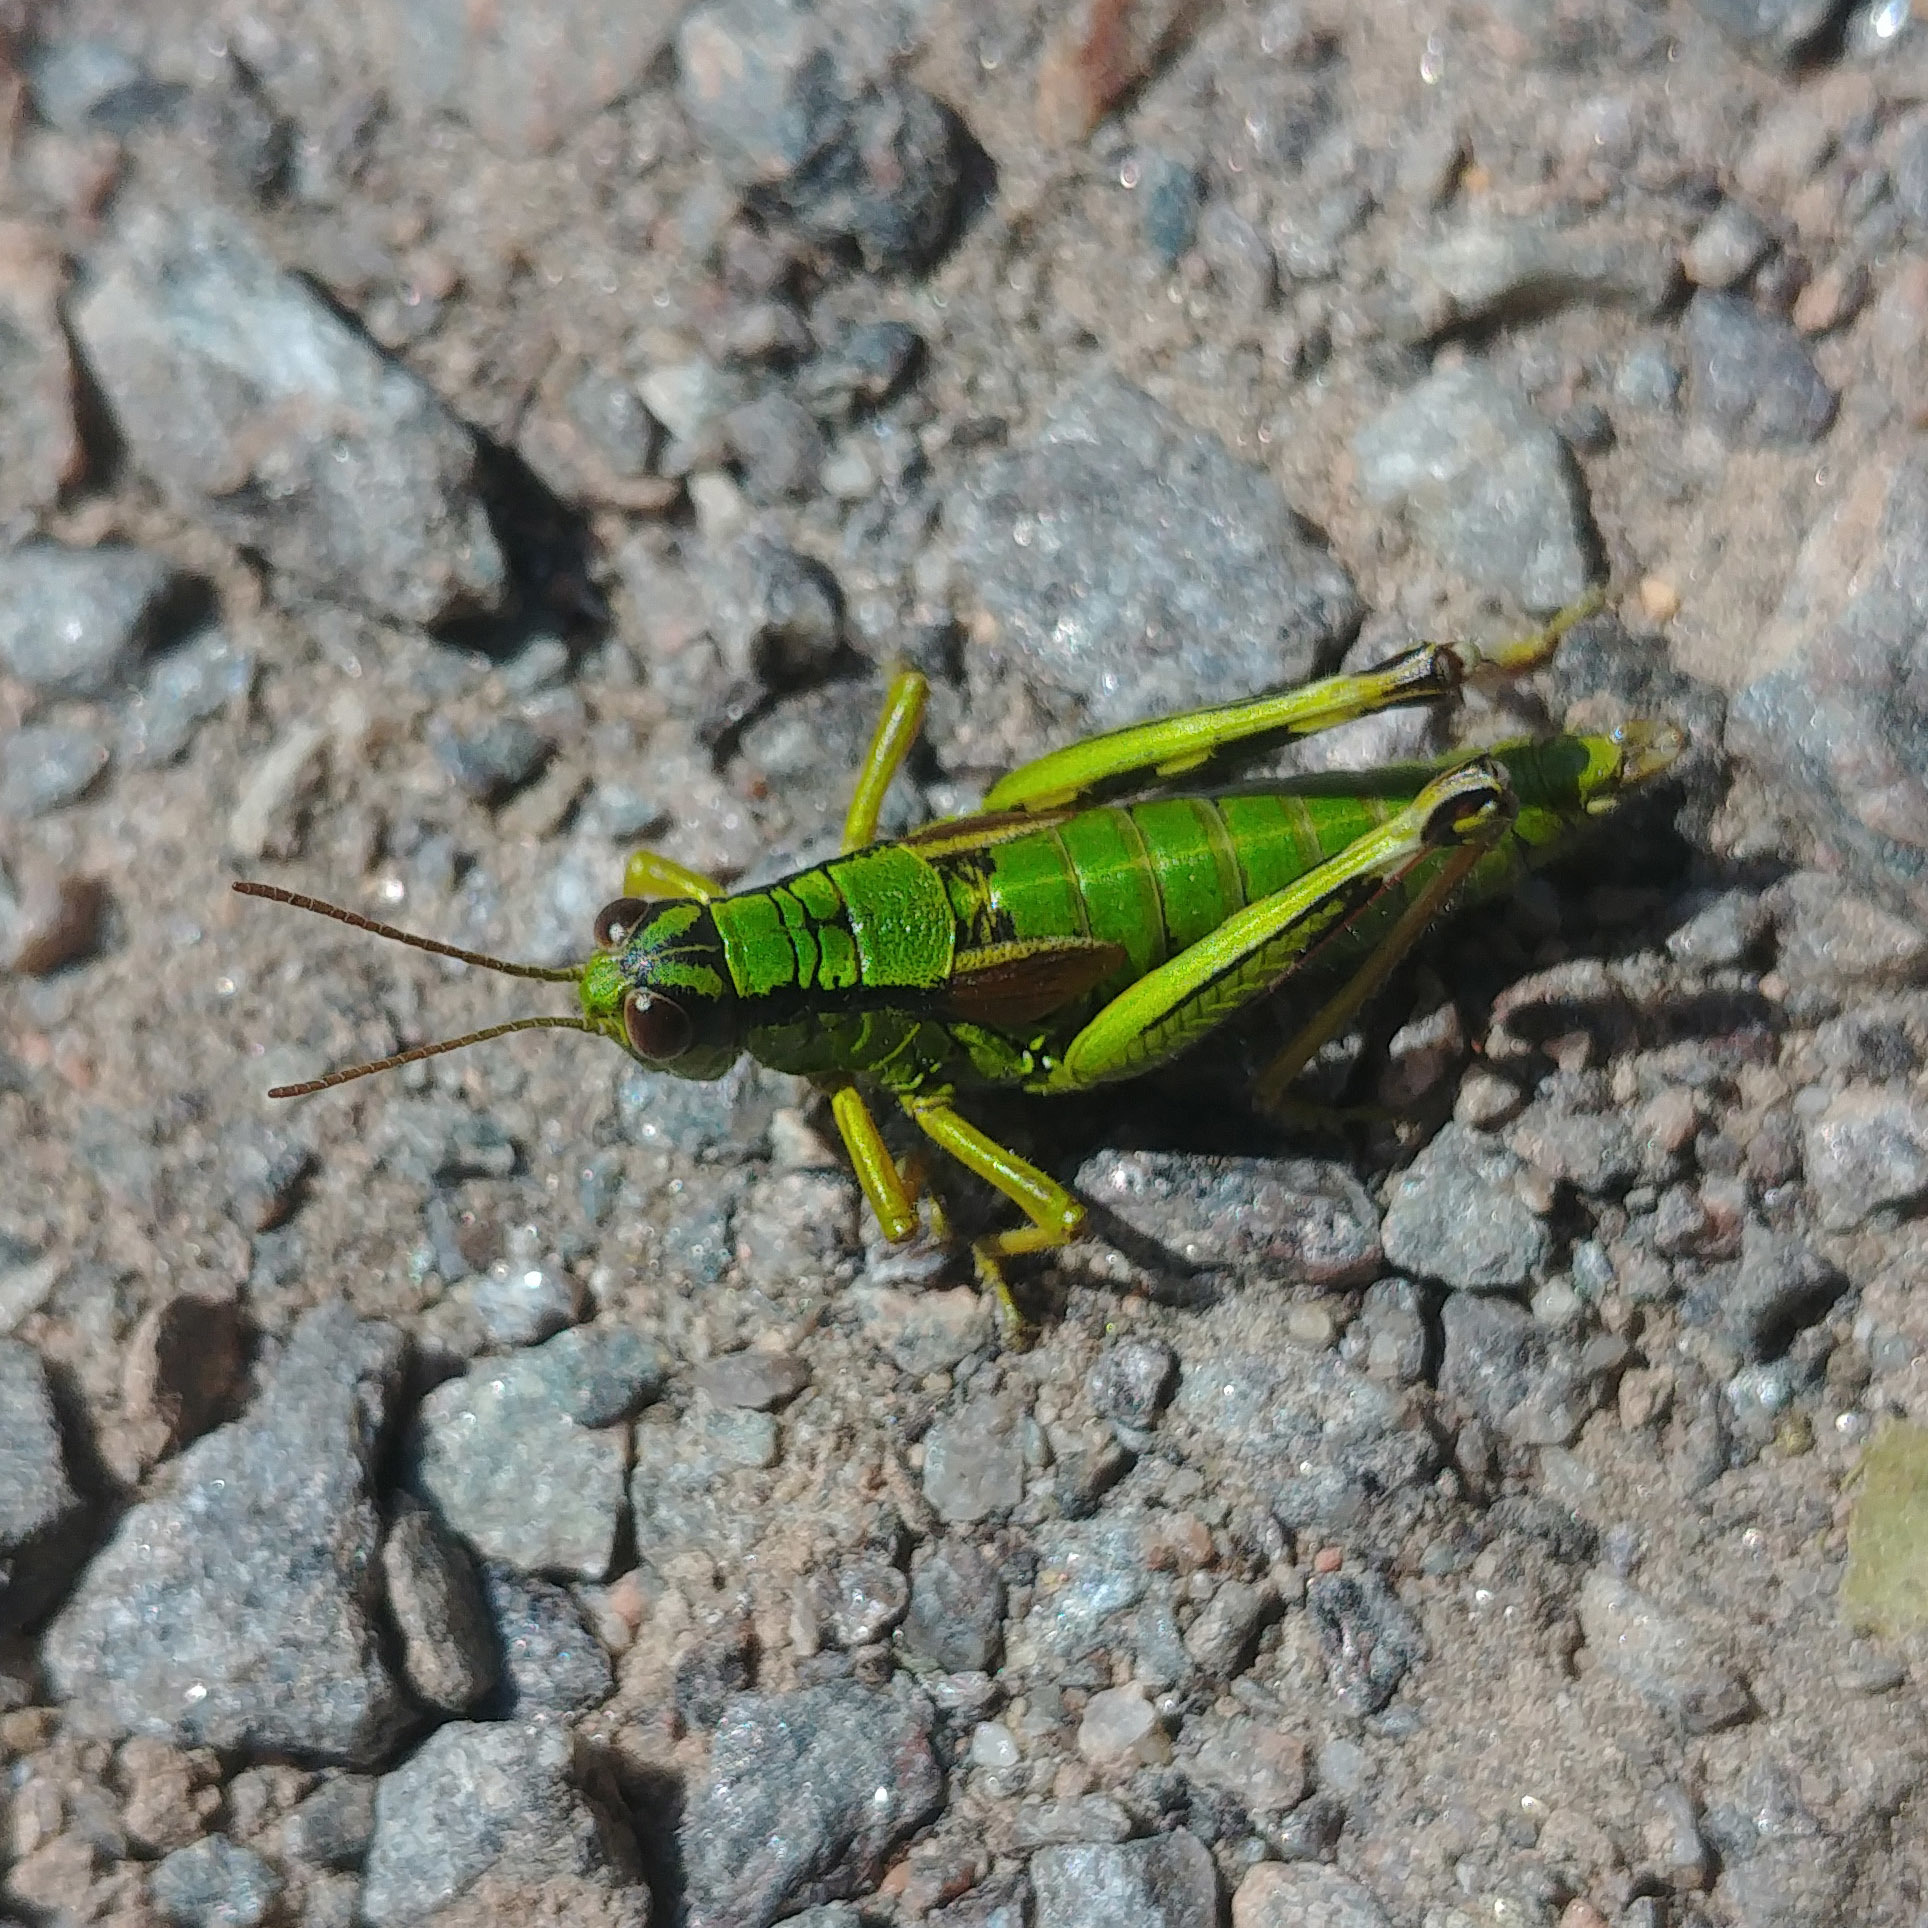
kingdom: Animalia
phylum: Arthropoda
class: Insecta
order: Orthoptera
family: Acrididae
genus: Miramella
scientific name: Miramella alpina
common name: Green mountain grasshopper
